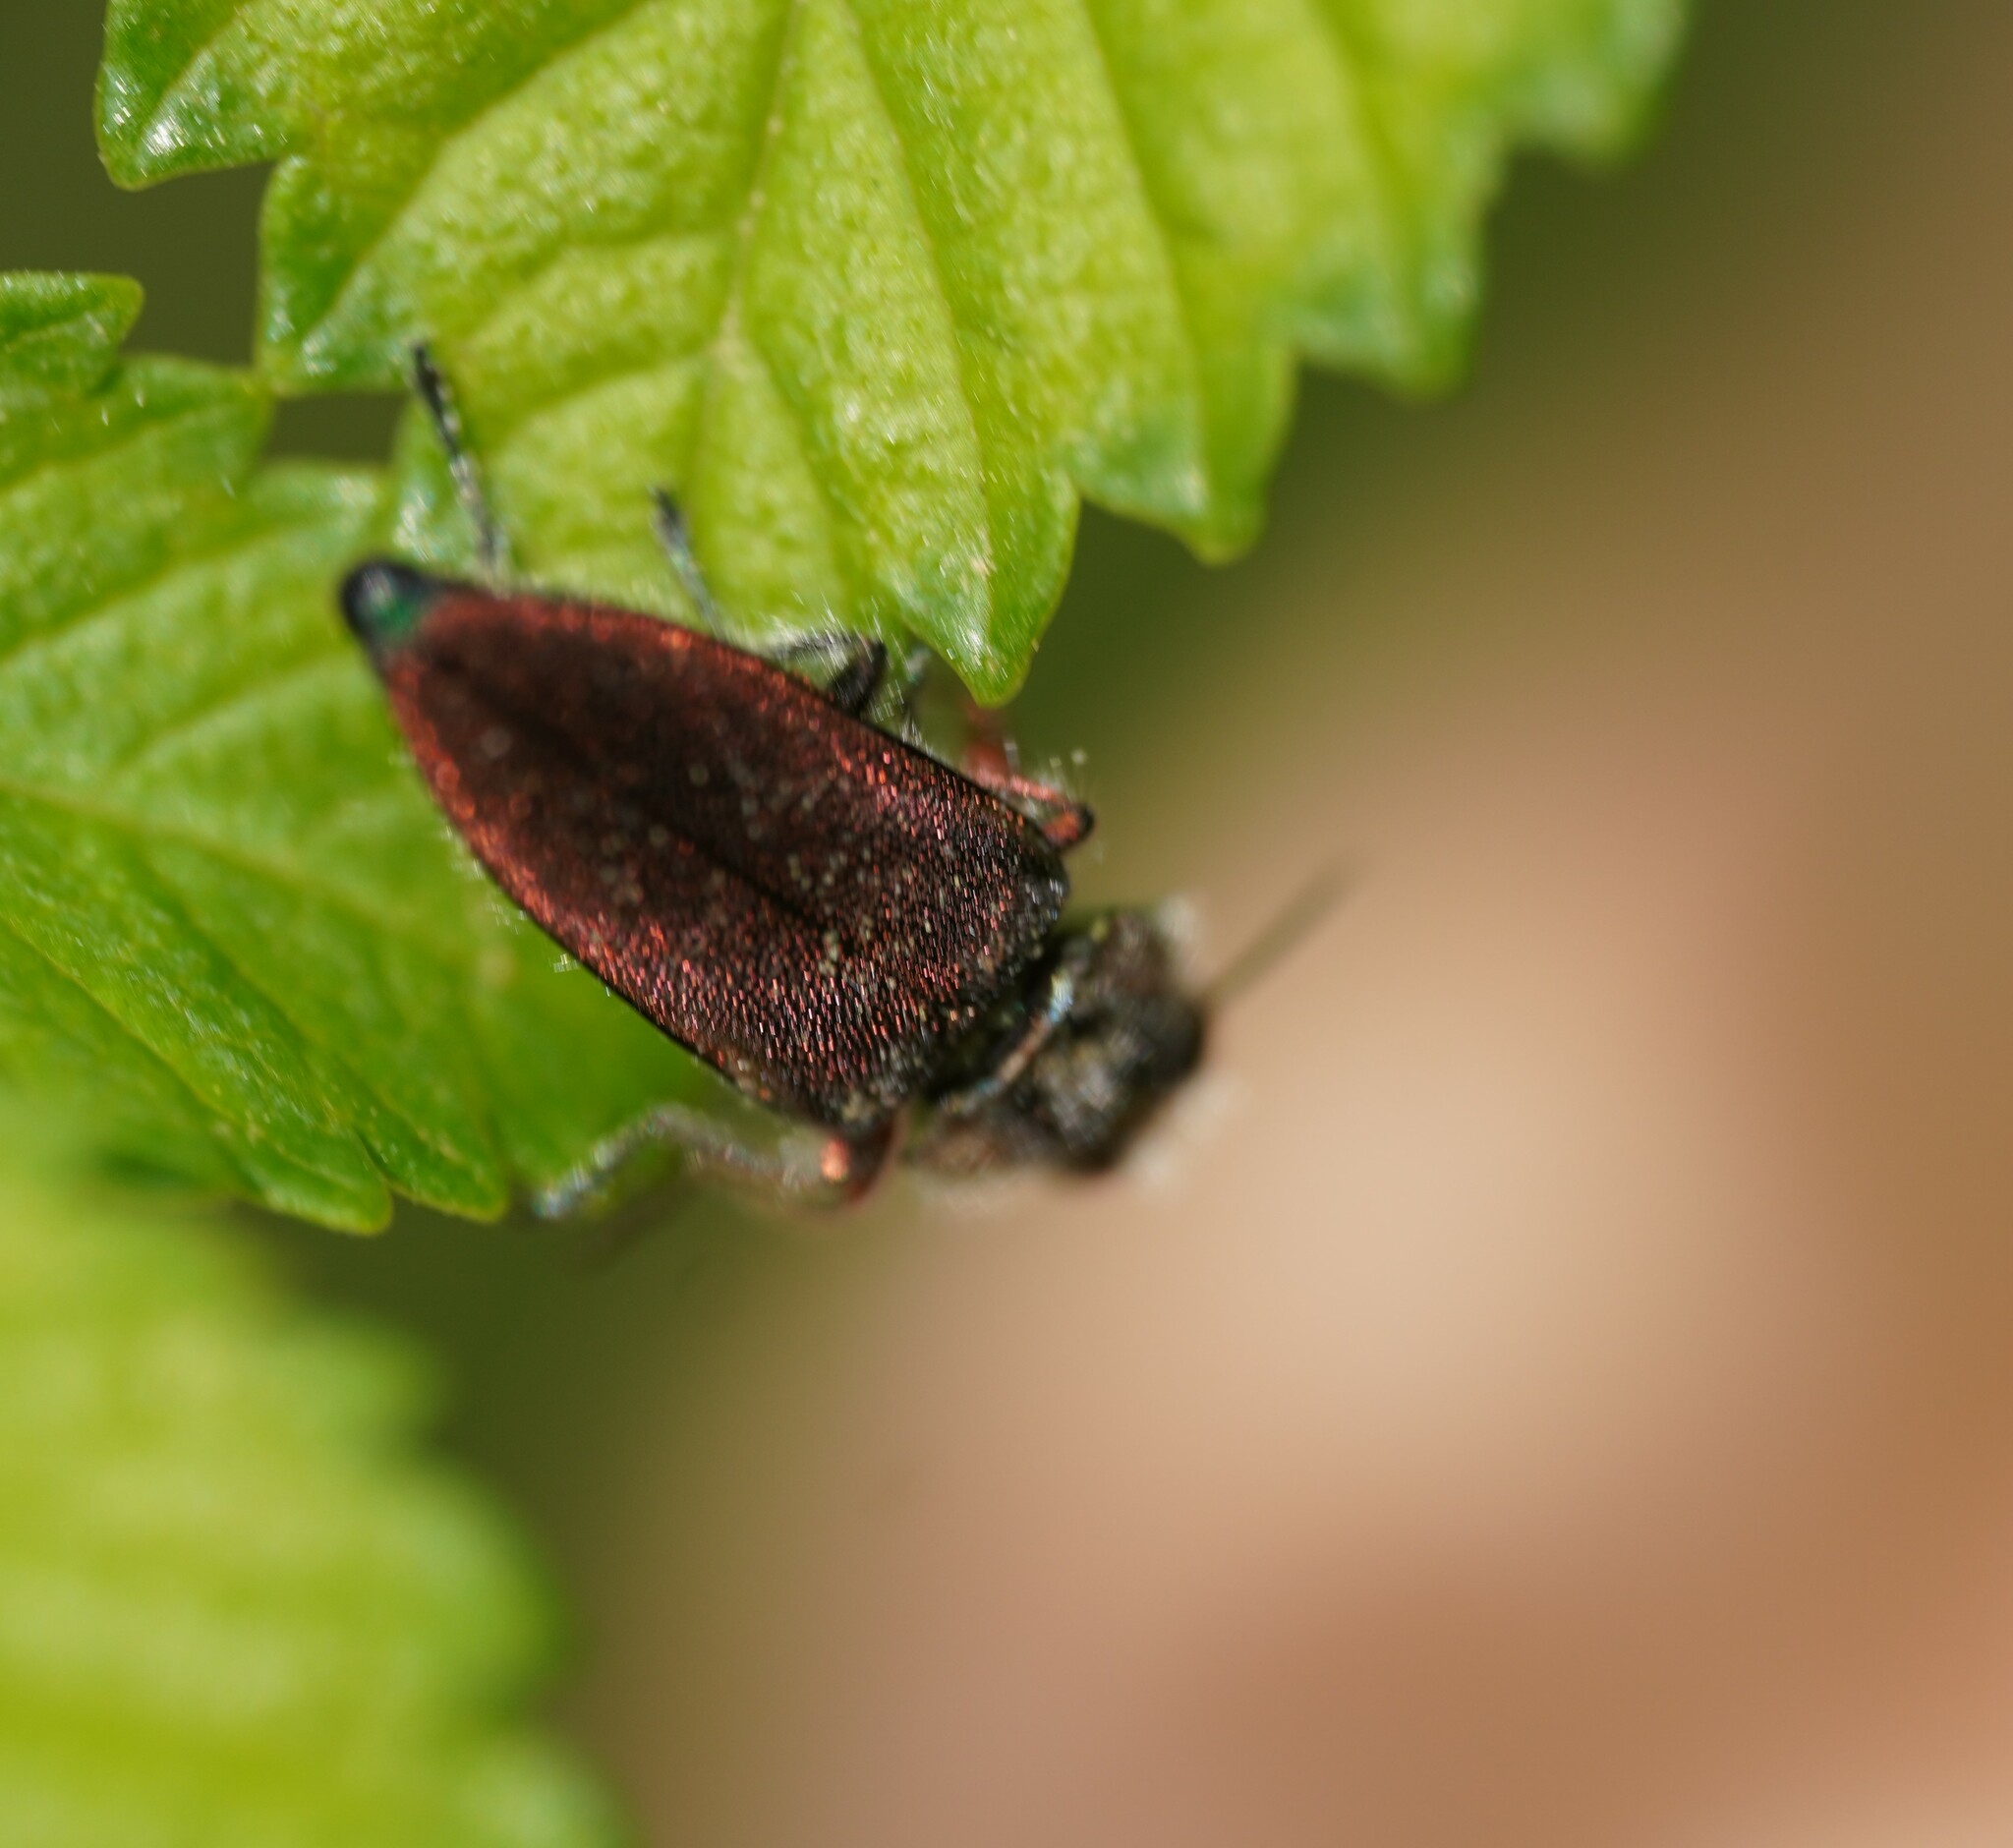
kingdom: Animalia
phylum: Arthropoda
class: Insecta
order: Coleoptera
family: Buprestidae
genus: Anthaxia
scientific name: Anthaxia manca
